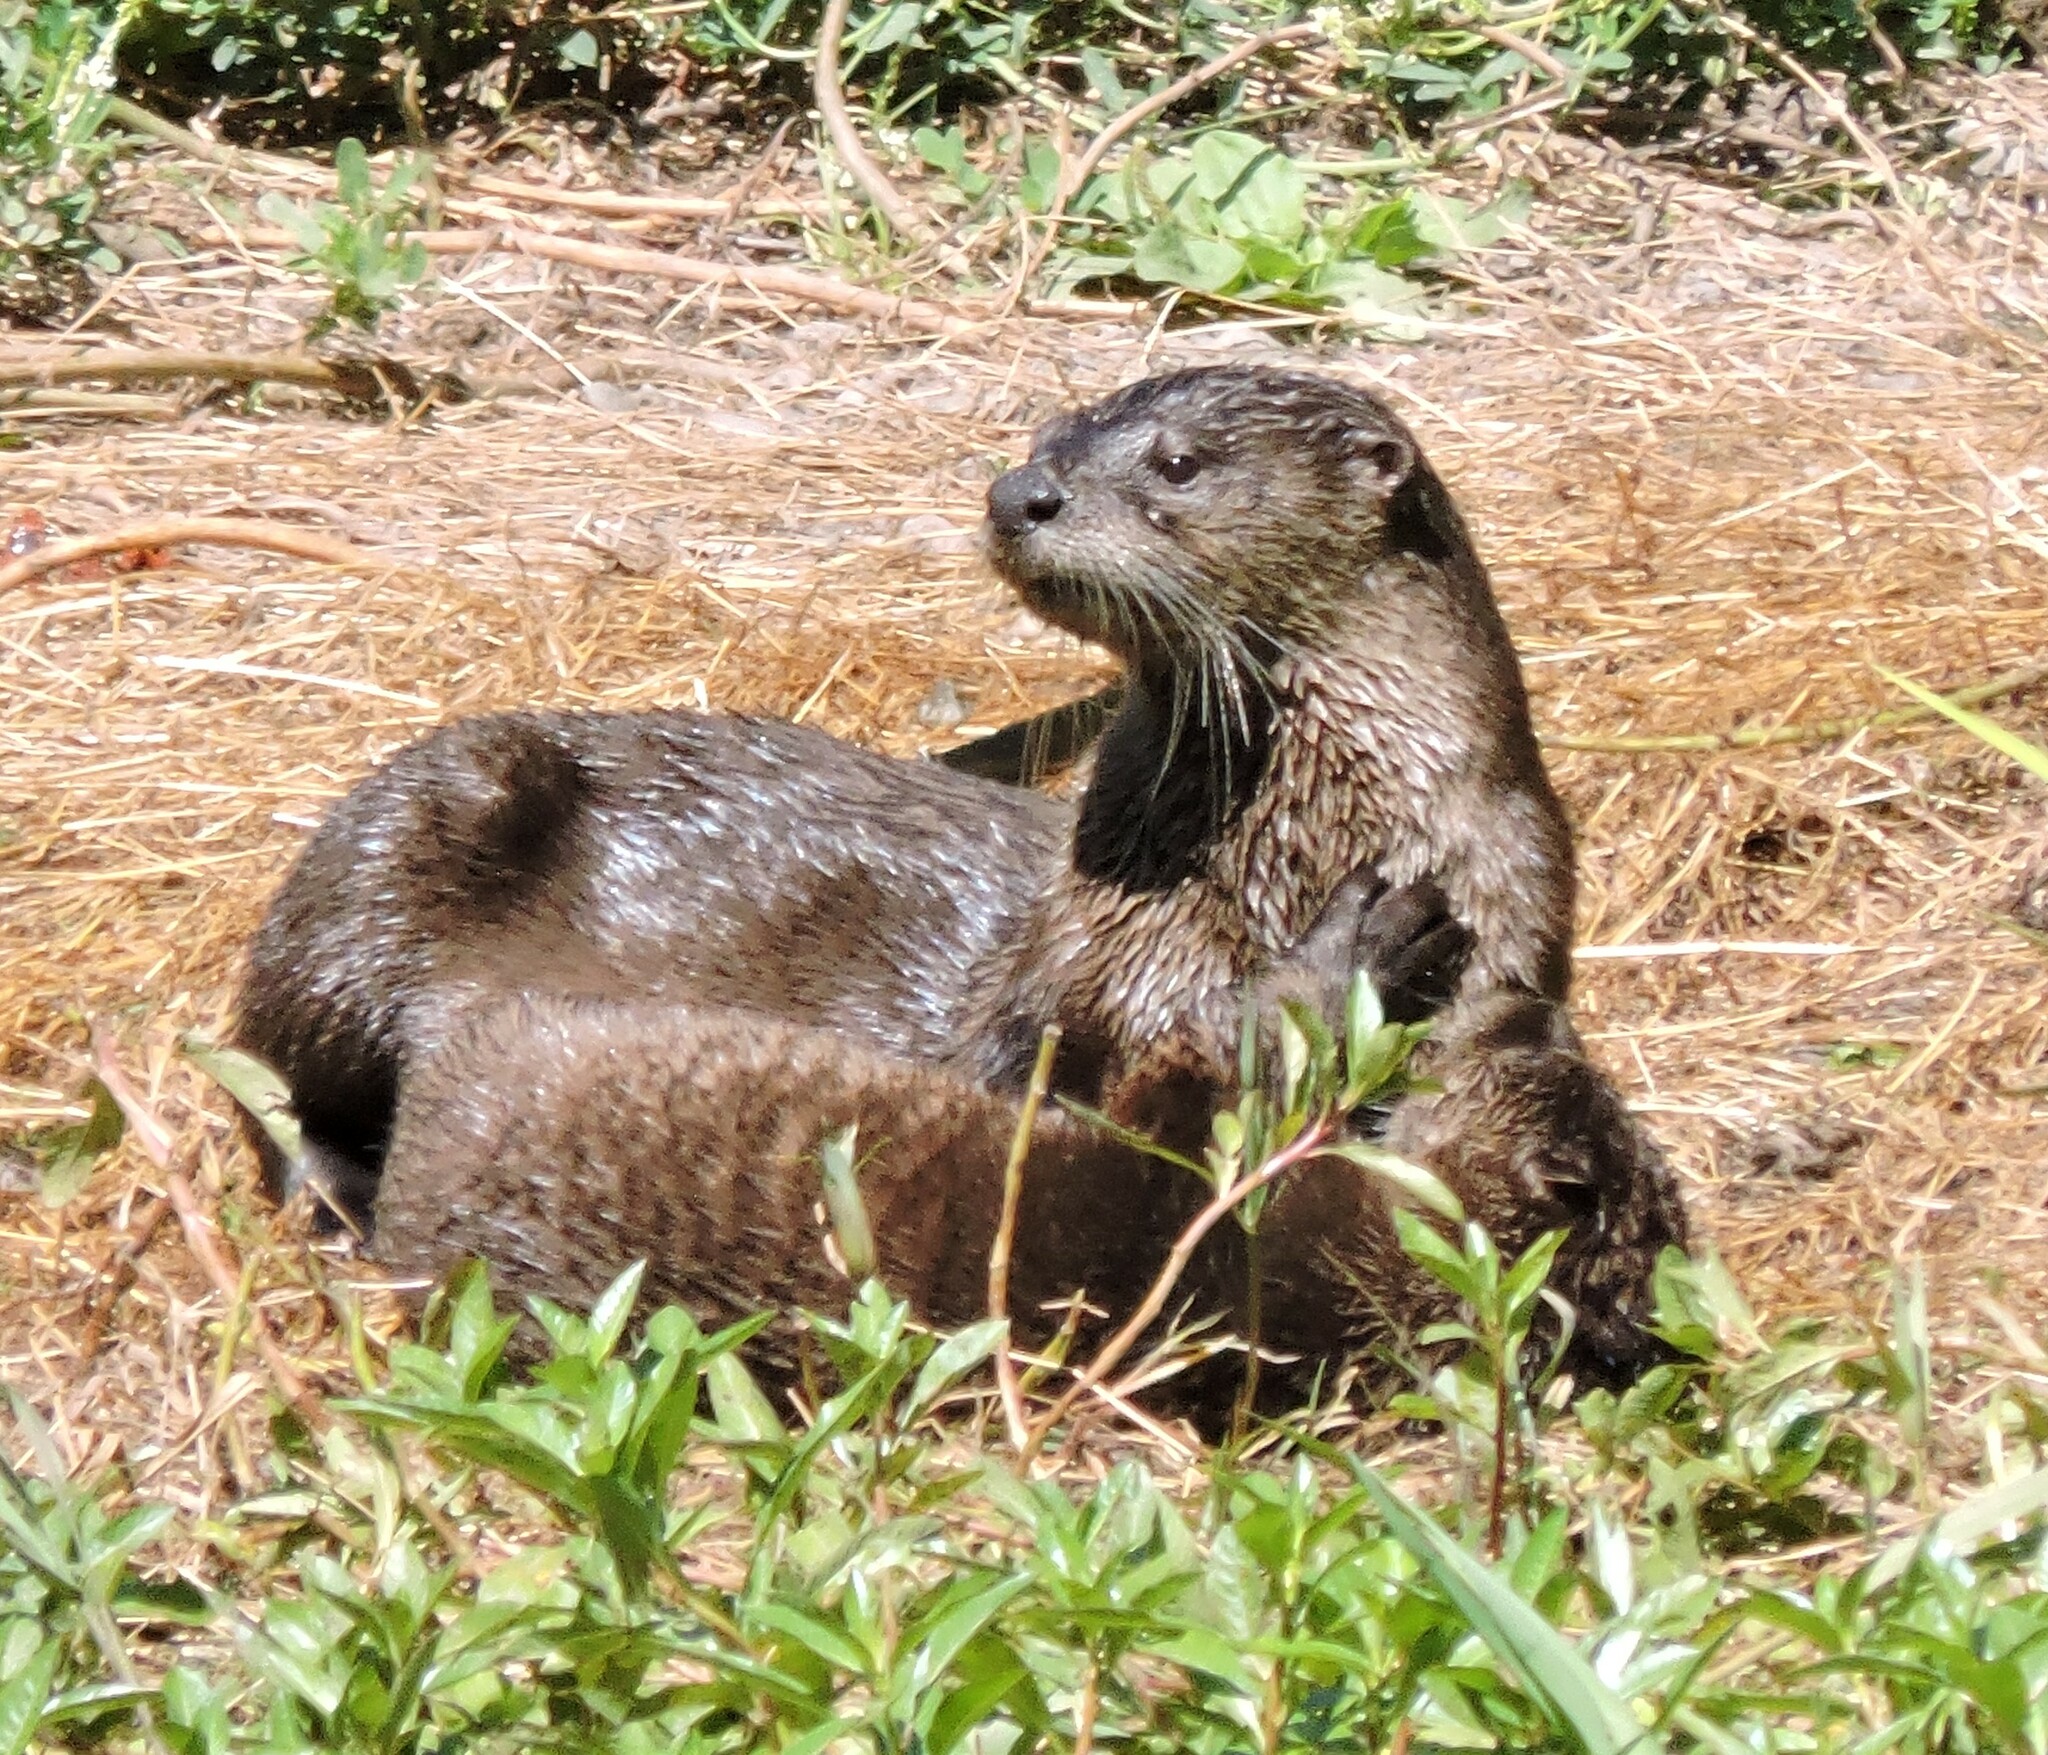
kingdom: Animalia
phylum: Chordata
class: Mammalia
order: Carnivora
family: Mustelidae
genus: Lontra
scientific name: Lontra canadensis
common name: North american river otter
